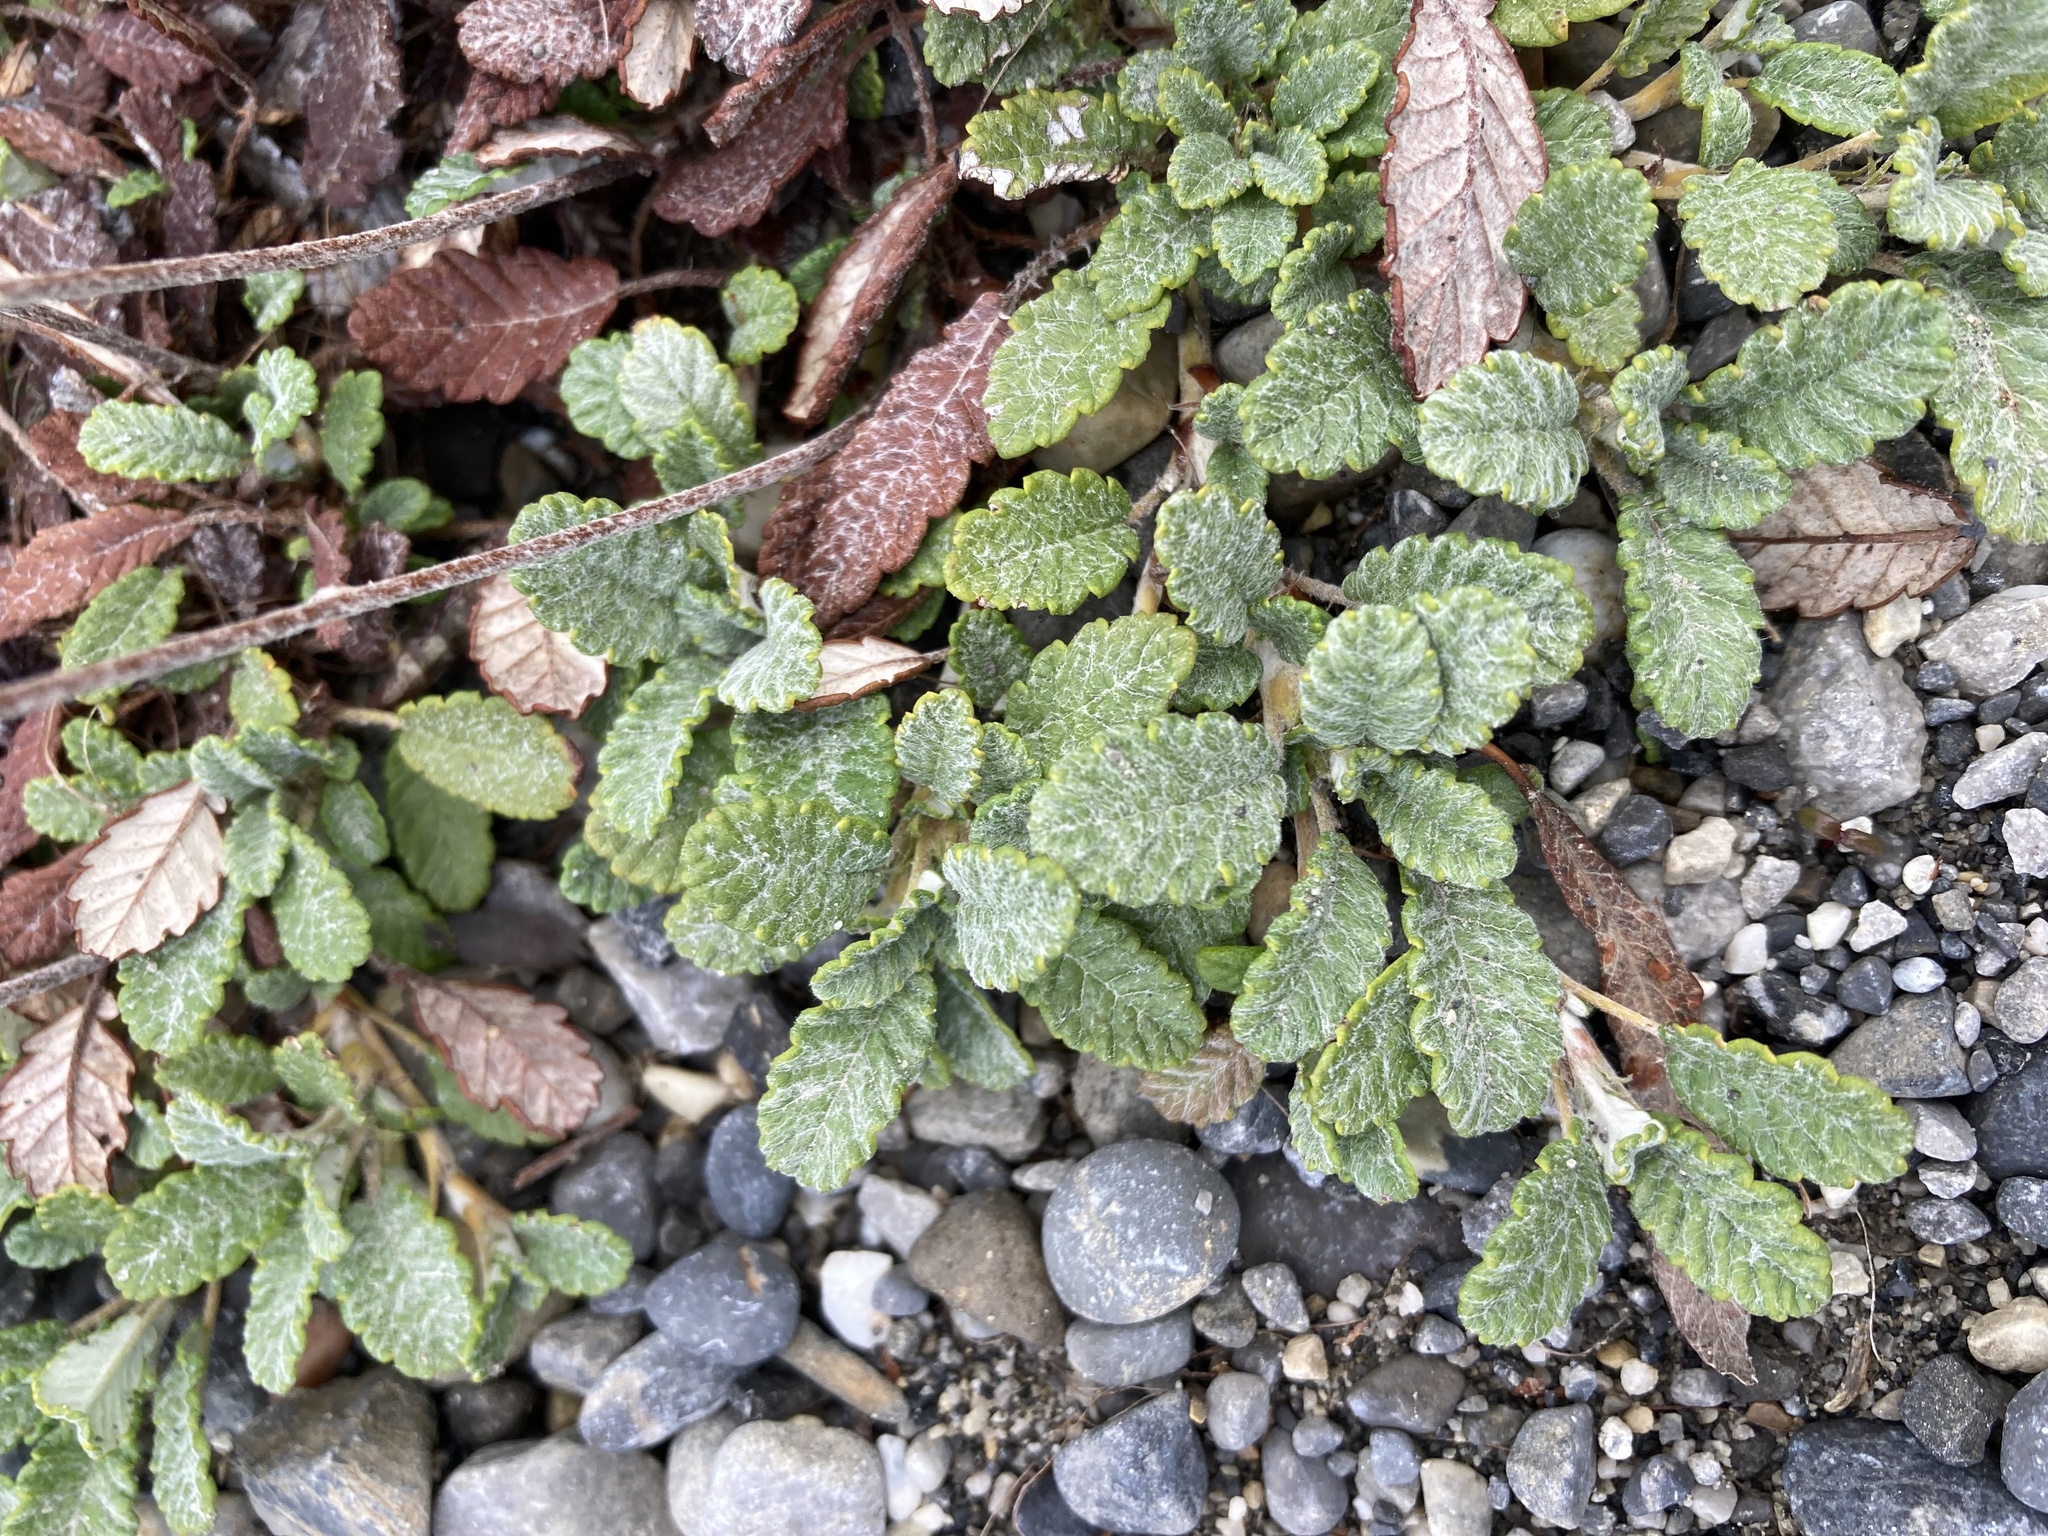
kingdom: Plantae
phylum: Tracheophyta
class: Magnoliopsida
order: Rosales
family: Rosaceae
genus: Dryas
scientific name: Dryas drummondii
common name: Drummond's dryad
